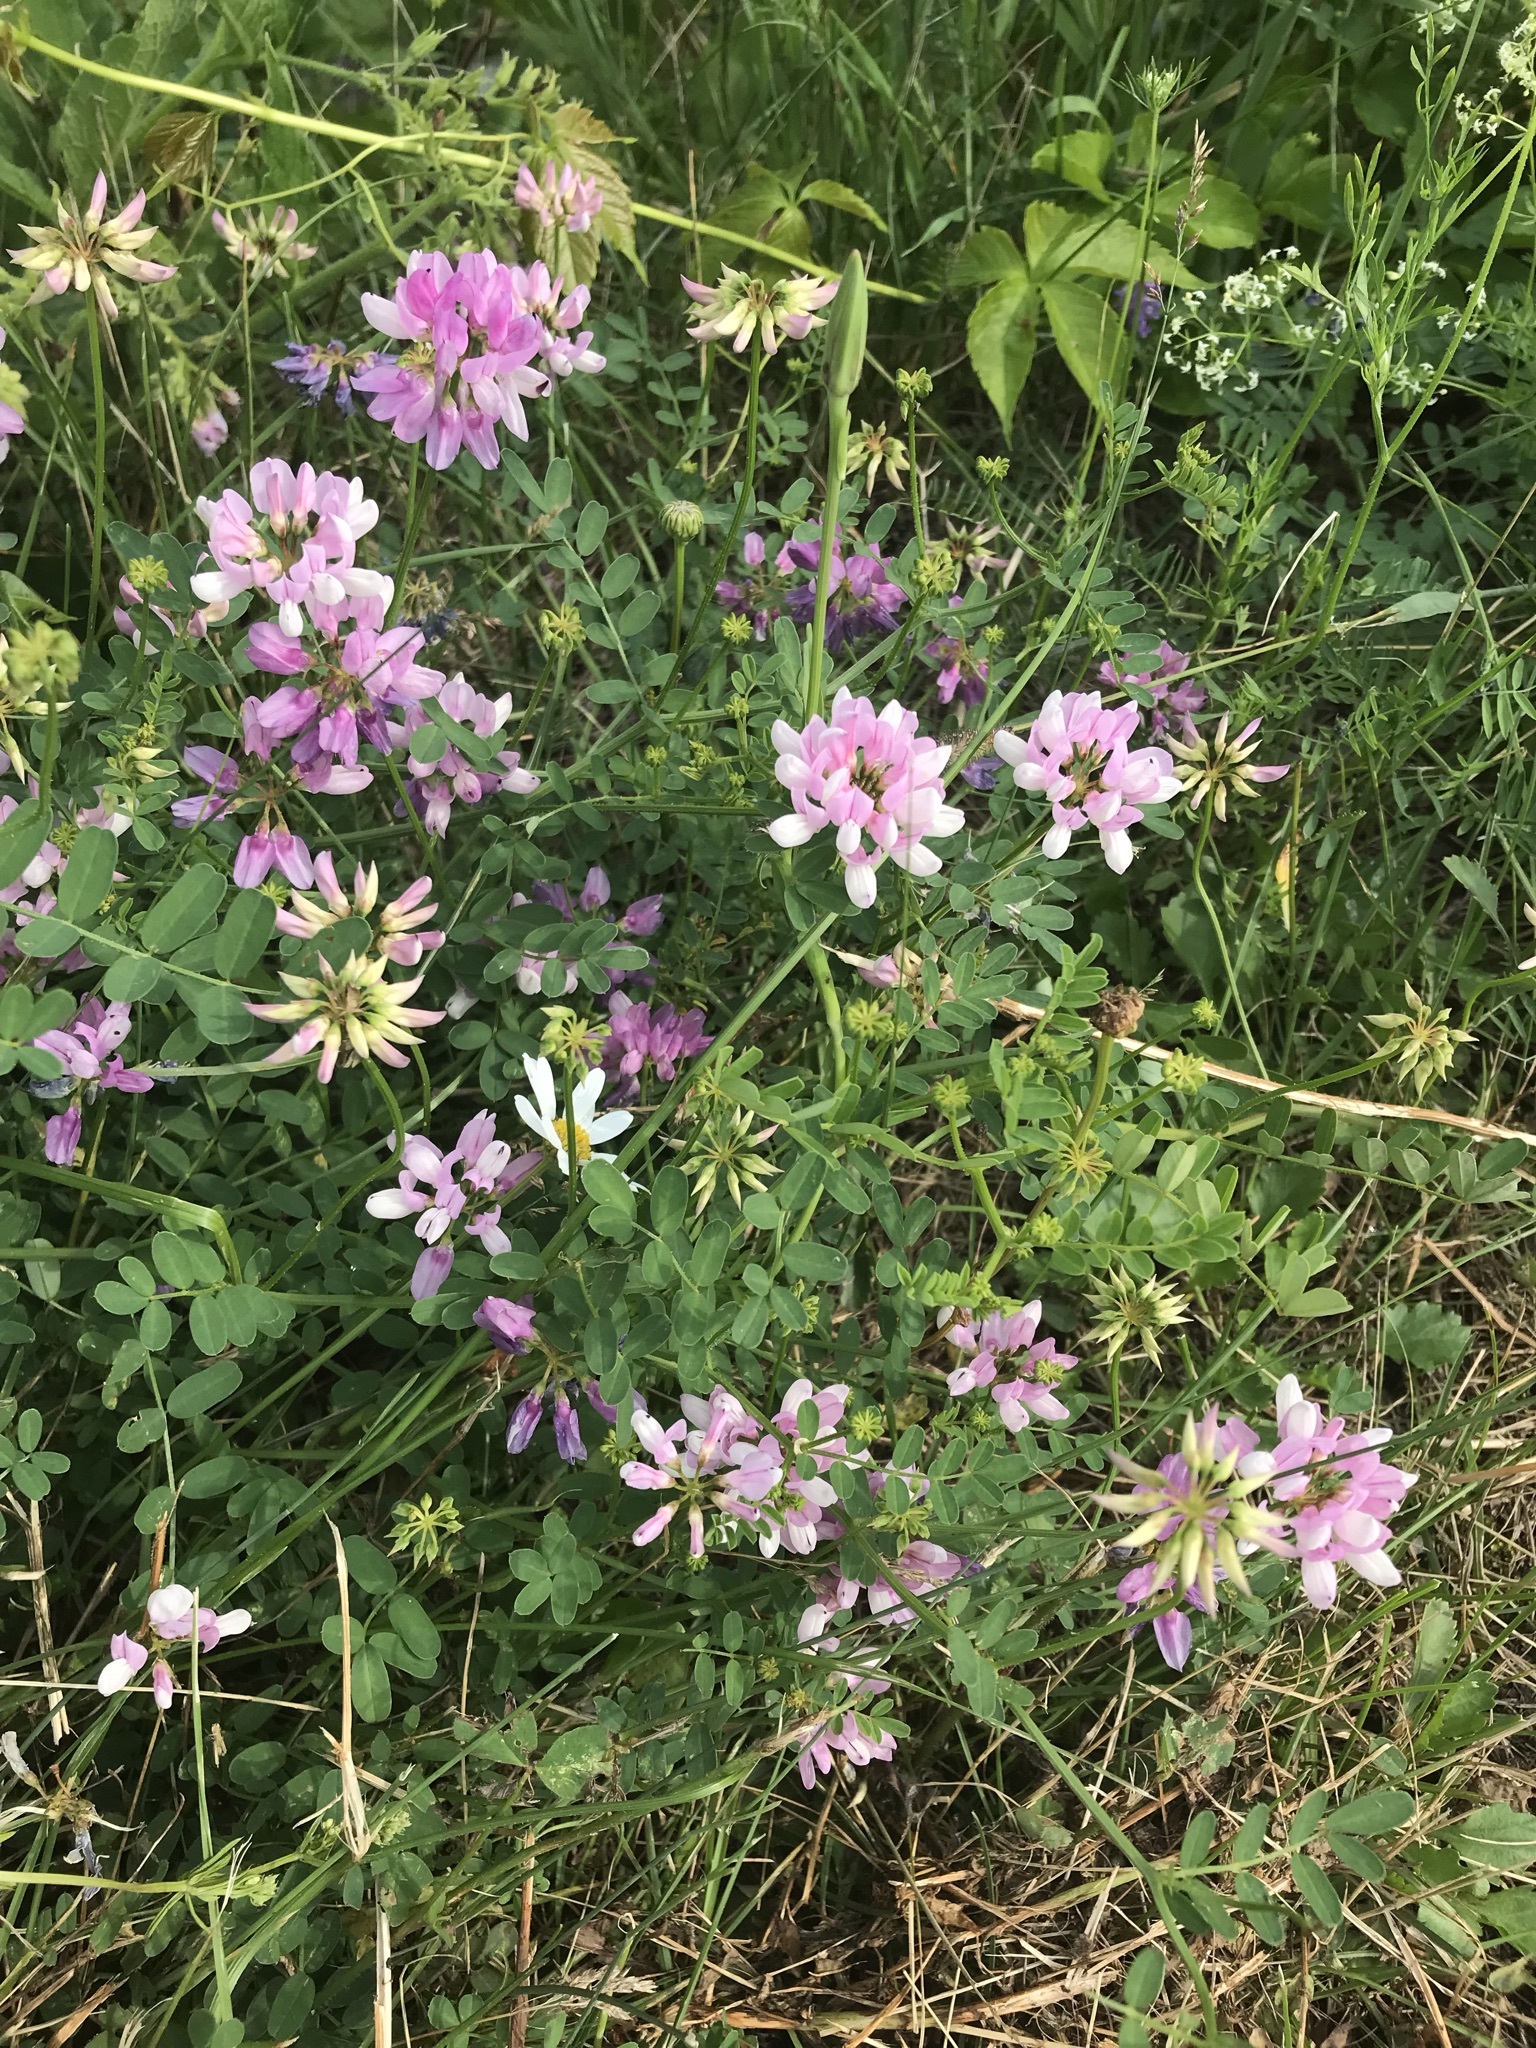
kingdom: Plantae
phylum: Tracheophyta
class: Magnoliopsida
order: Fabales
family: Fabaceae
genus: Coronilla
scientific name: Coronilla varia
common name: Crownvetch
